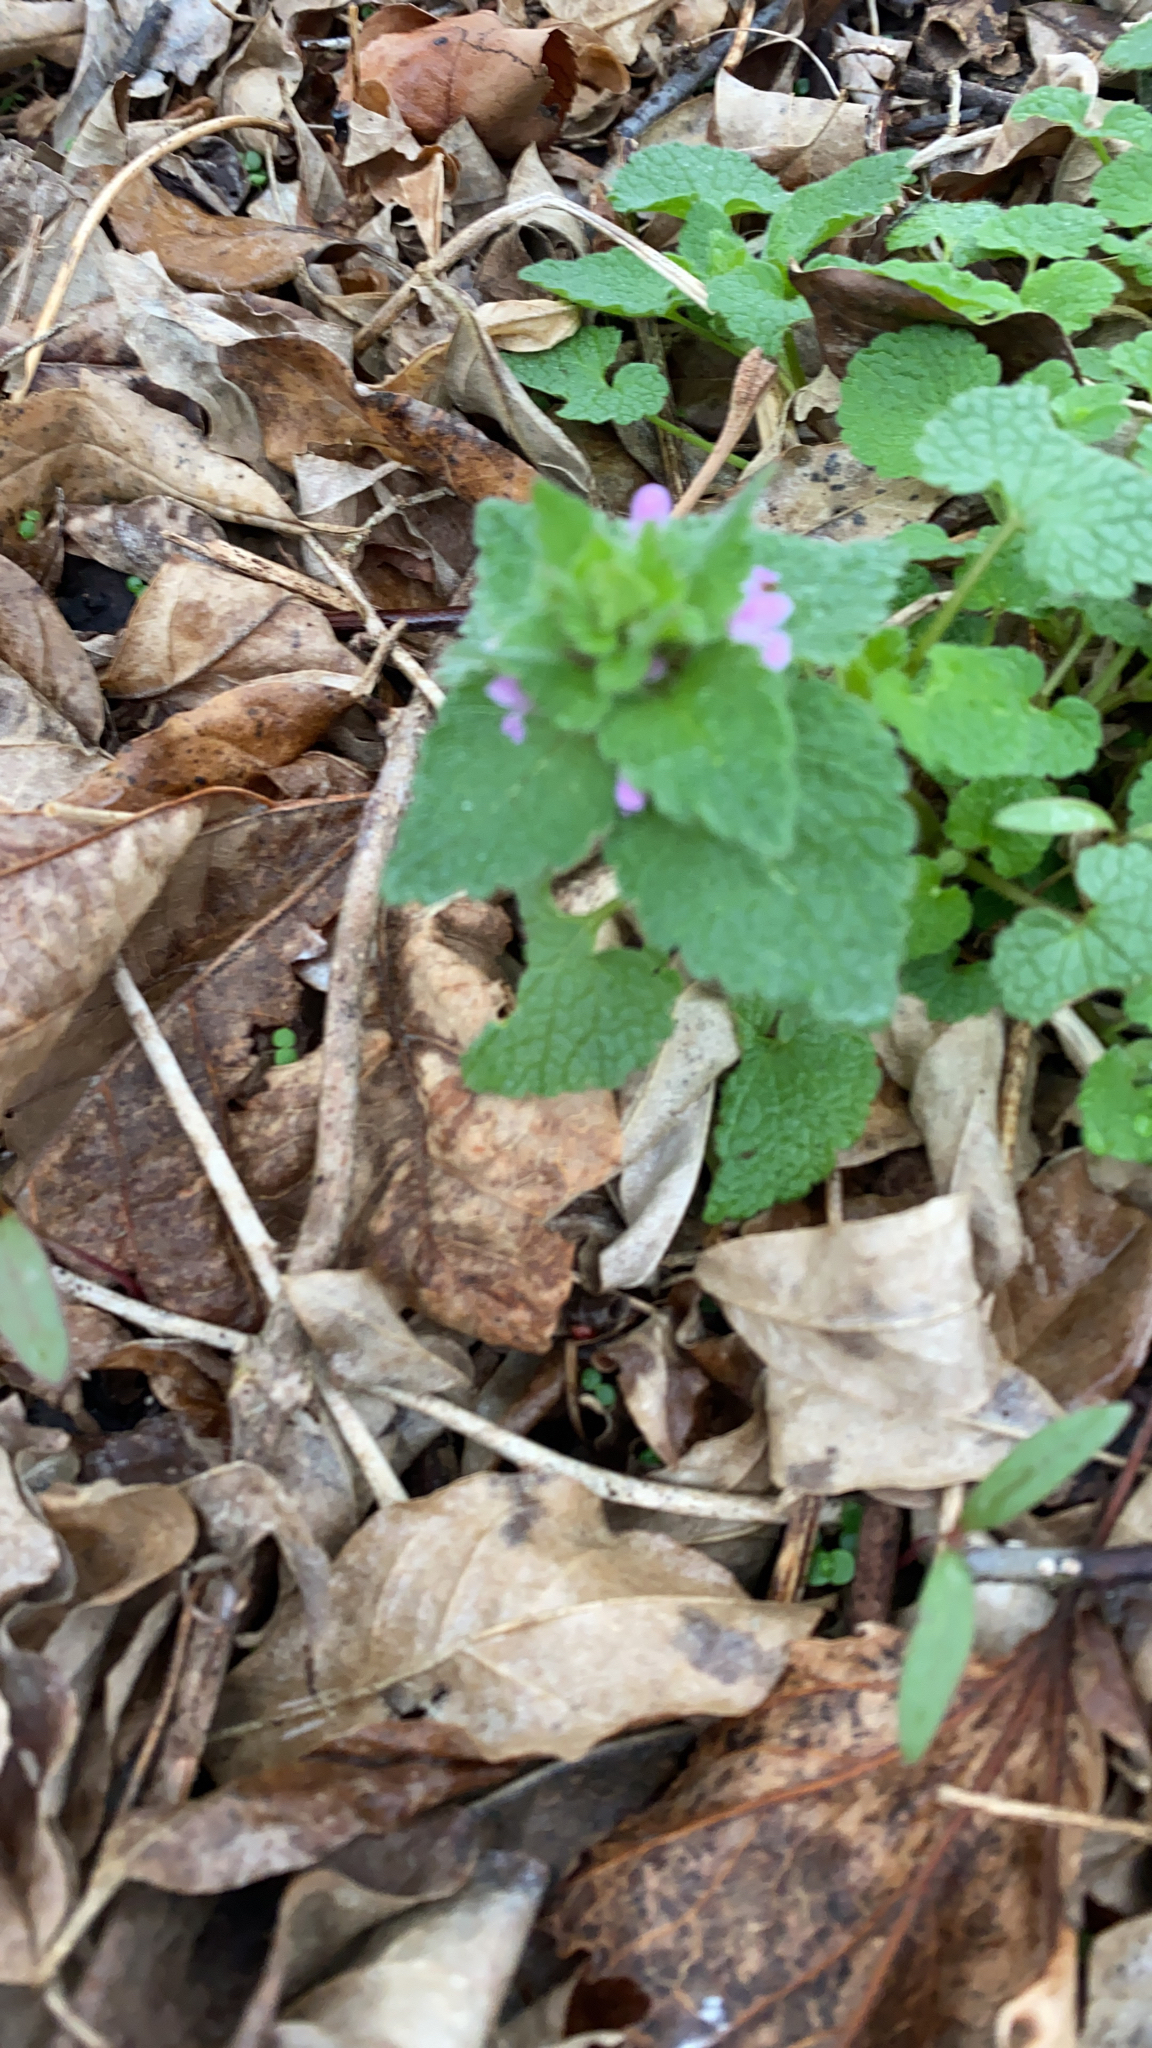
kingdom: Plantae
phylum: Tracheophyta
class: Magnoliopsida
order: Lamiales
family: Lamiaceae
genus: Lamium
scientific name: Lamium purpureum
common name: Red dead-nettle
